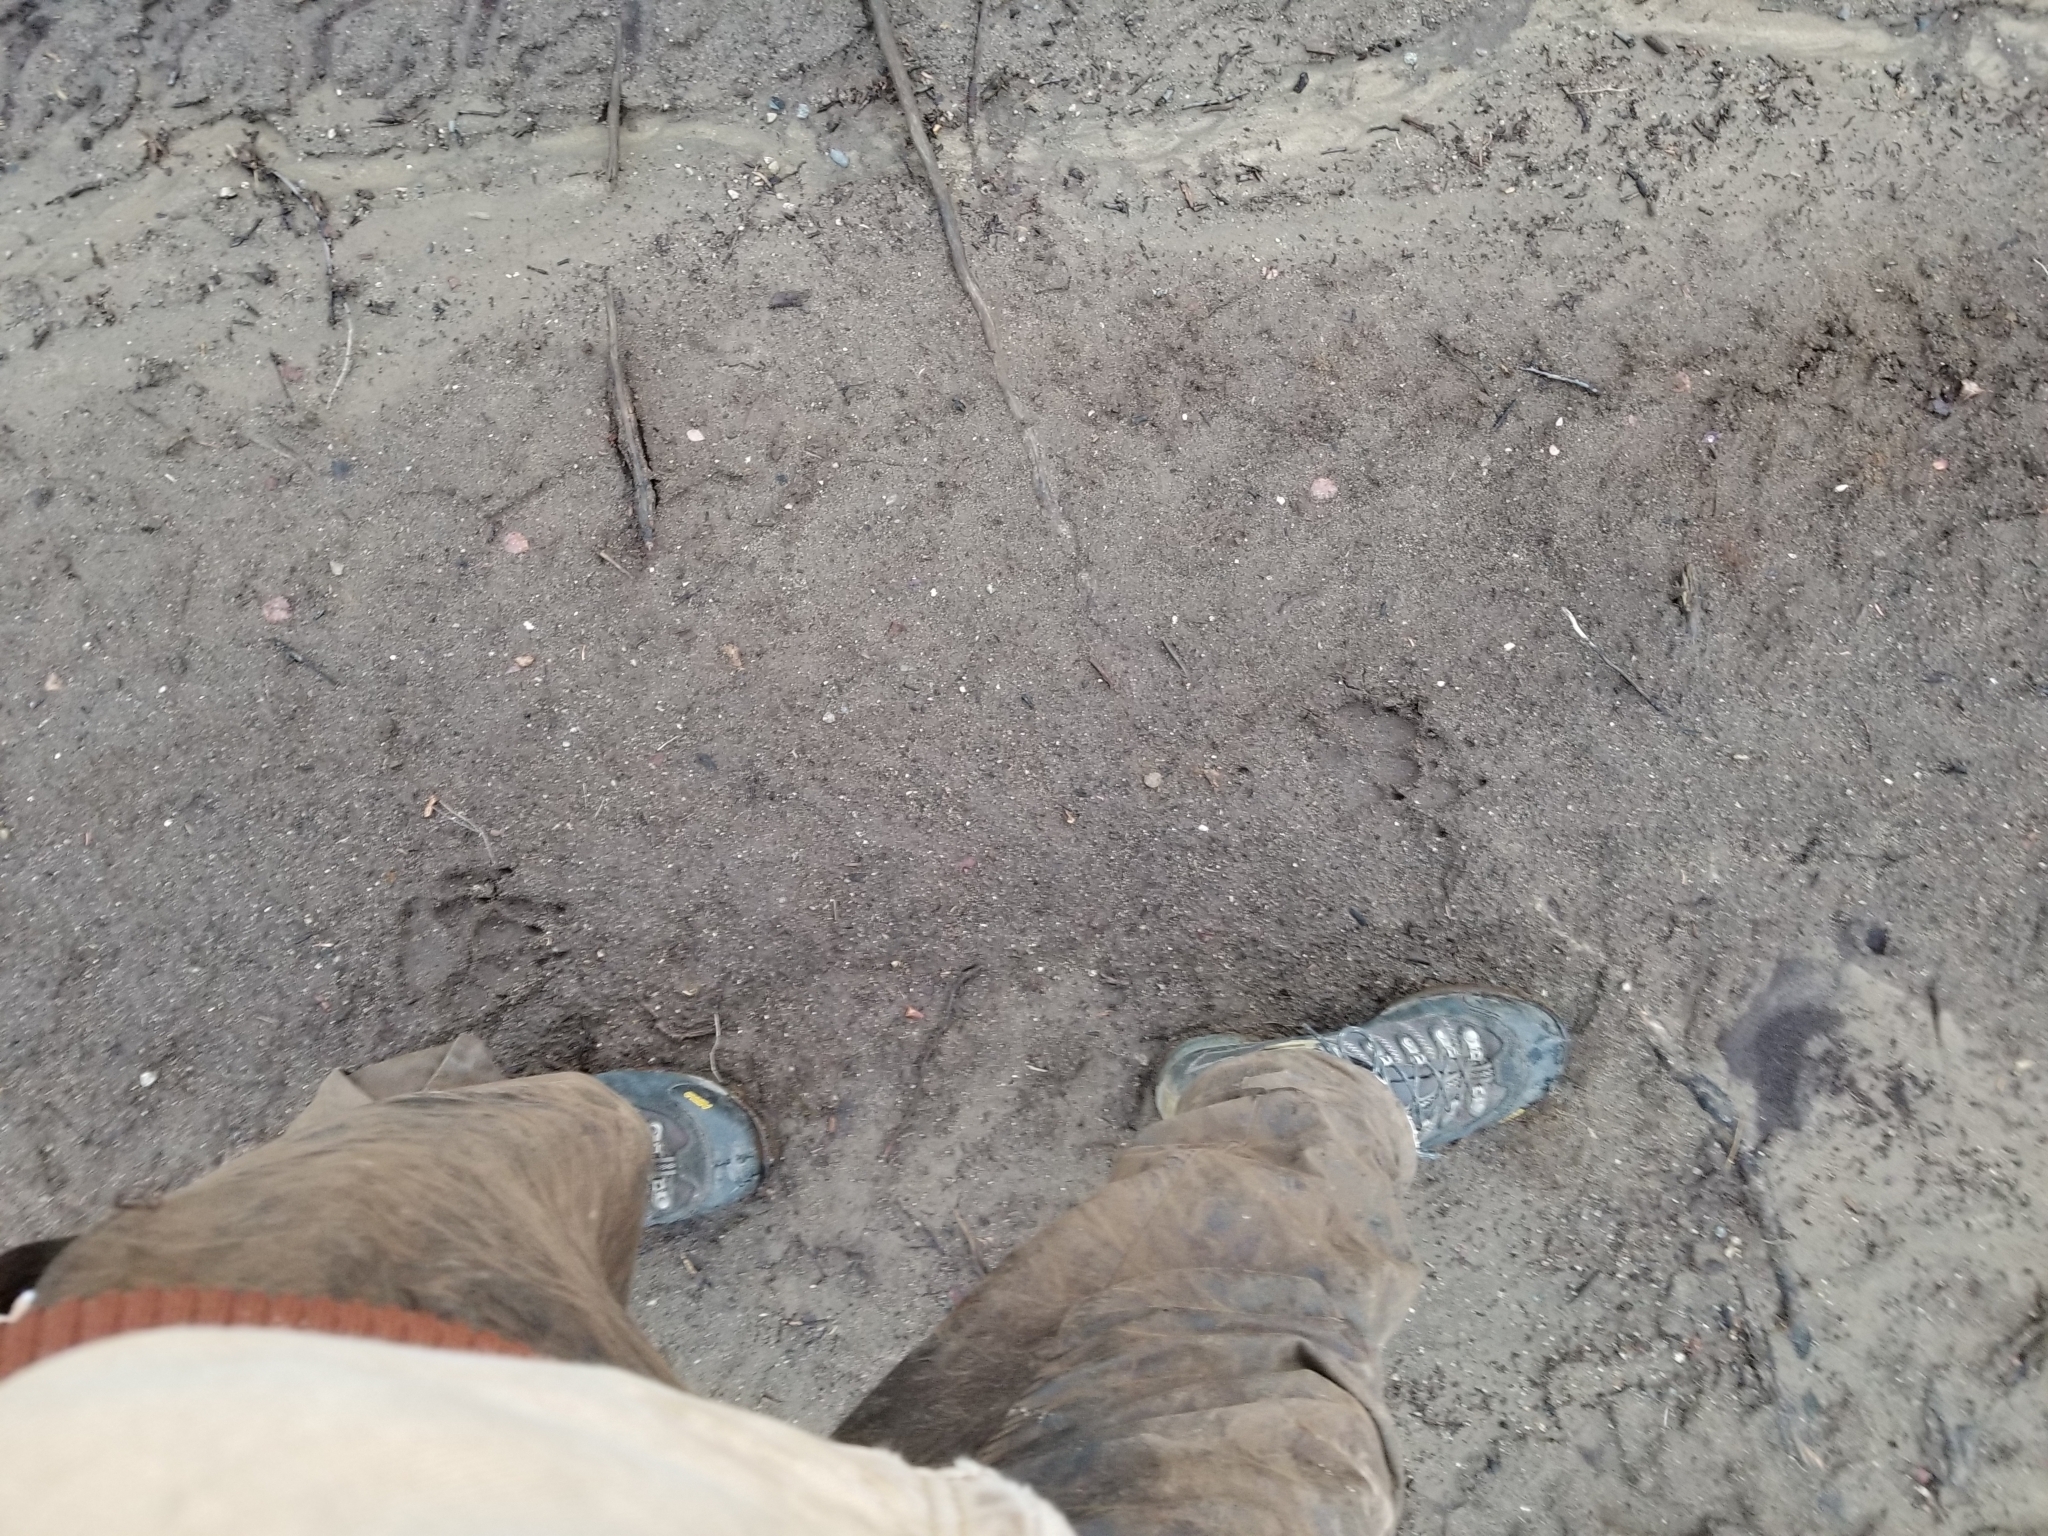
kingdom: Animalia
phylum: Chordata
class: Mammalia
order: Carnivora
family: Canidae
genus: Canis
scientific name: Canis lupus
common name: Gray wolf
